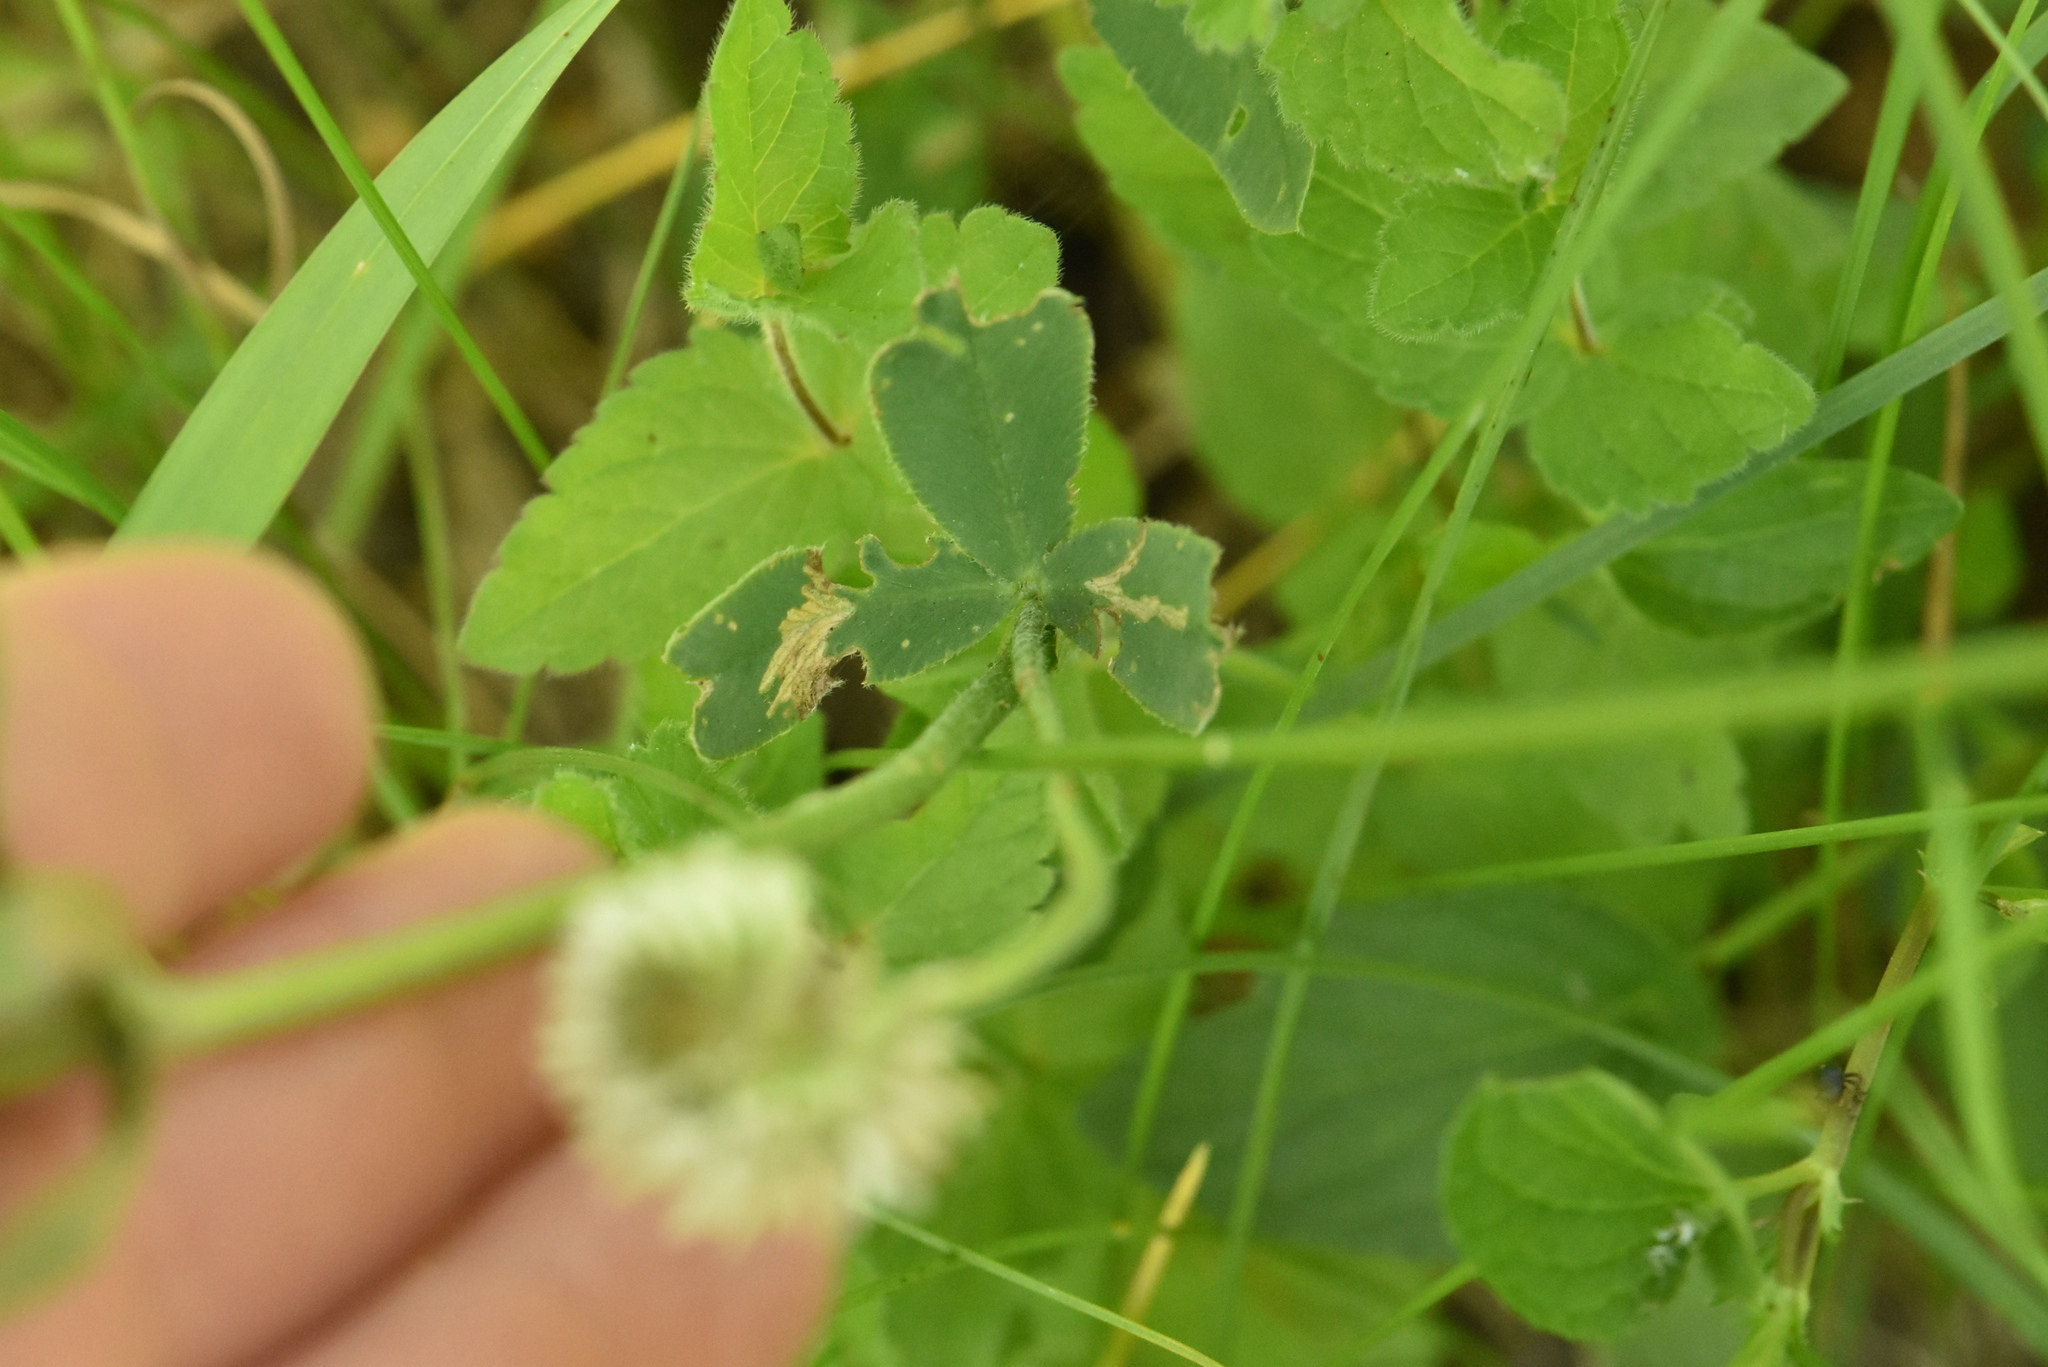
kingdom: Plantae
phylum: Tracheophyta
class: Magnoliopsida
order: Fabales
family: Fabaceae
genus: Trifolium
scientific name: Trifolium montanum
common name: Mountain clover
